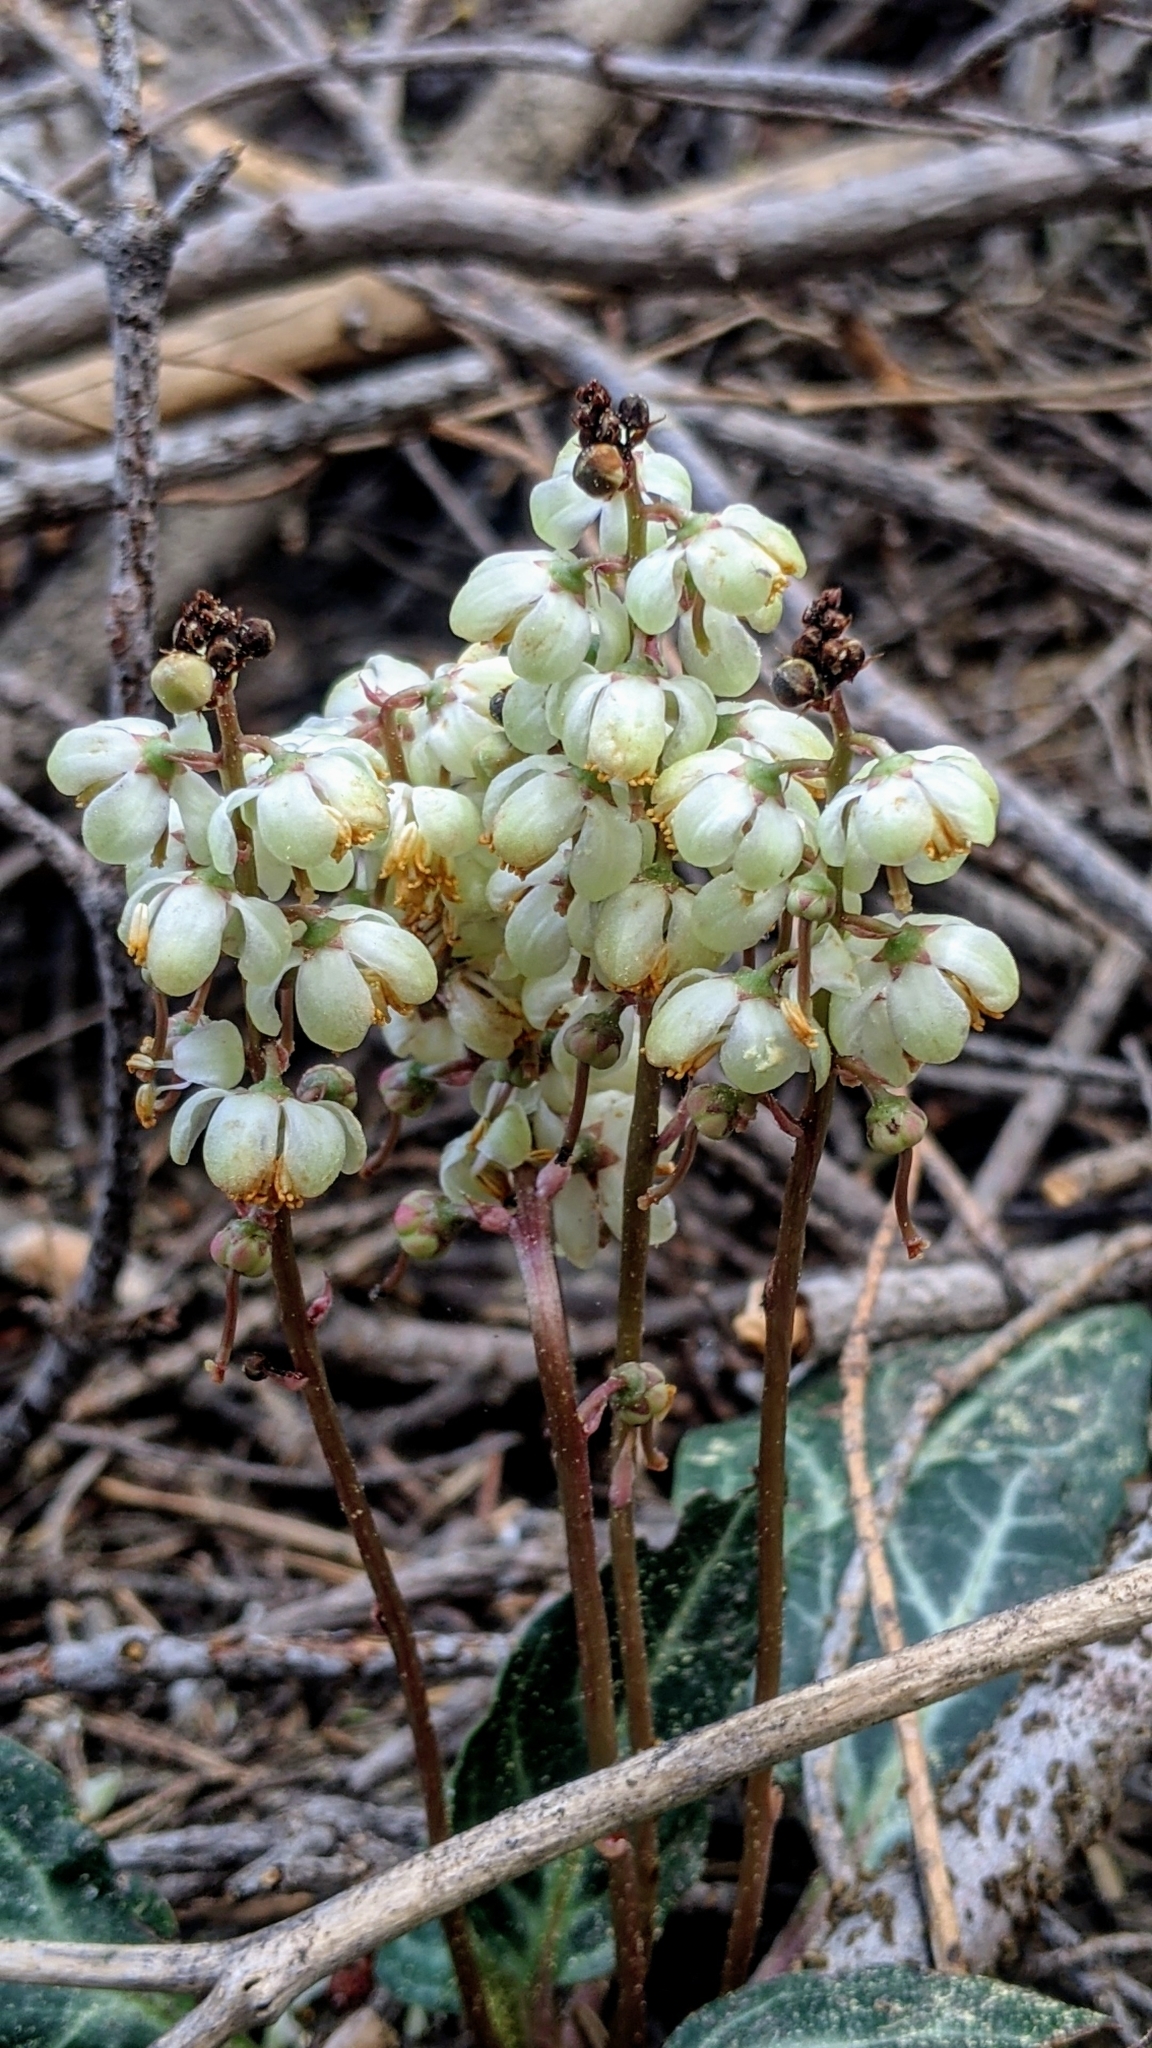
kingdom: Plantae
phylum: Tracheophyta
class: Magnoliopsida
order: Ericales
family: Ericaceae
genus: Pyrola
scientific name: Pyrola picta
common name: White-vein wintergreen
